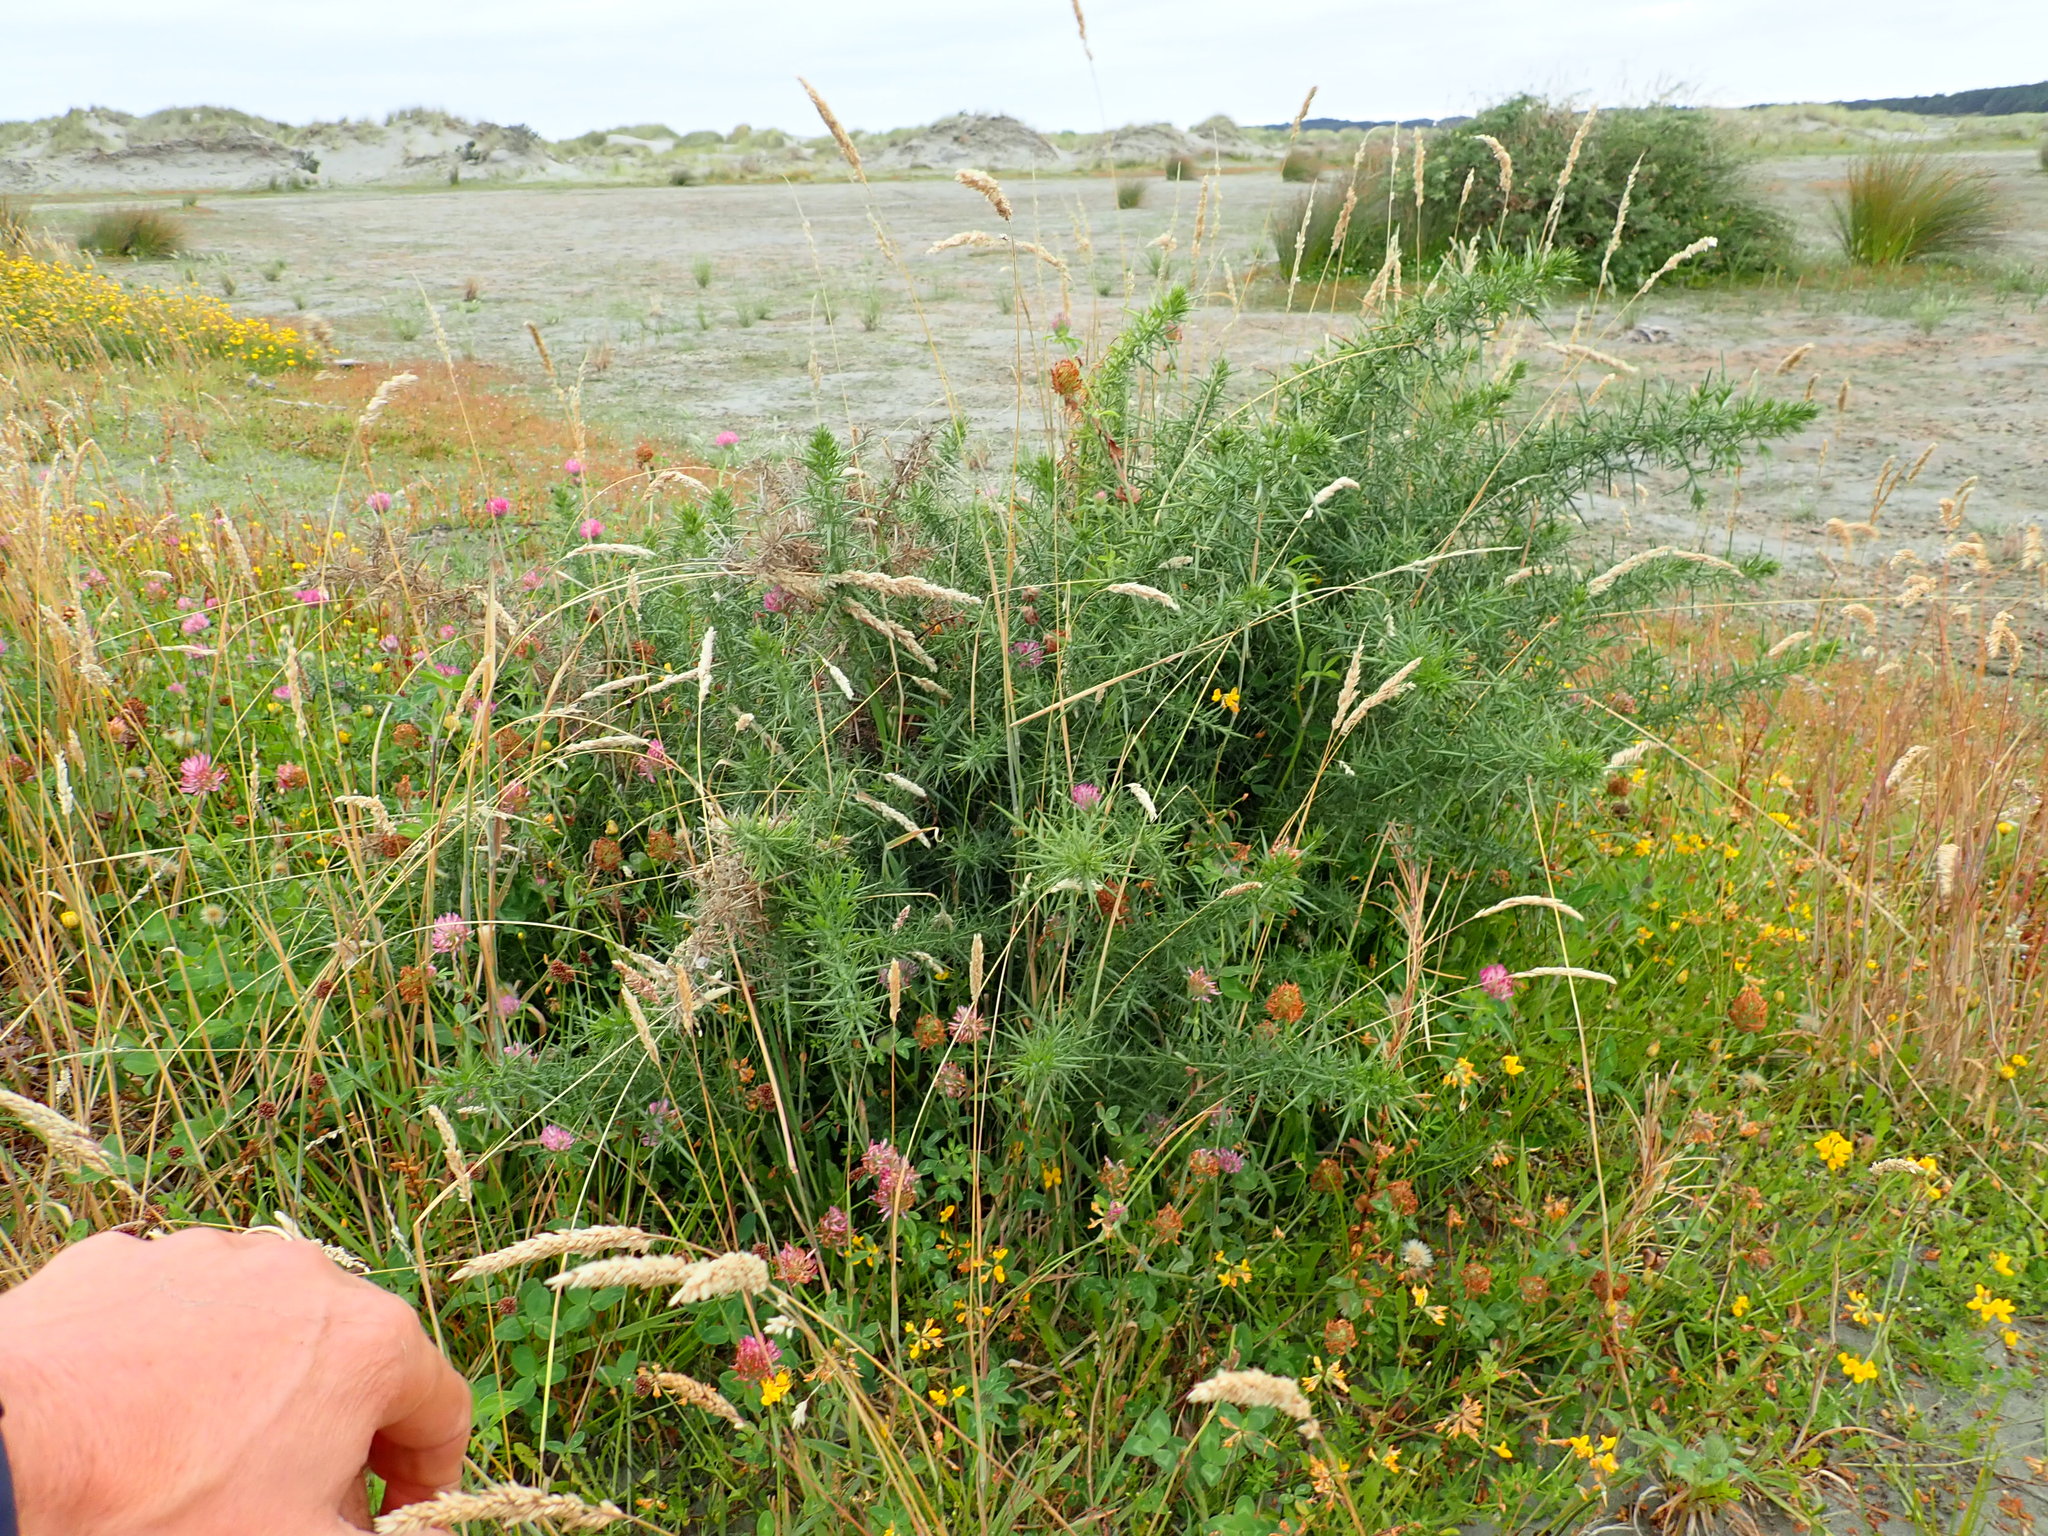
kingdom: Plantae
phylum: Tracheophyta
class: Magnoliopsida
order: Fabales
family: Fabaceae
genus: Ulex
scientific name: Ulex europaeus
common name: Common gorse
